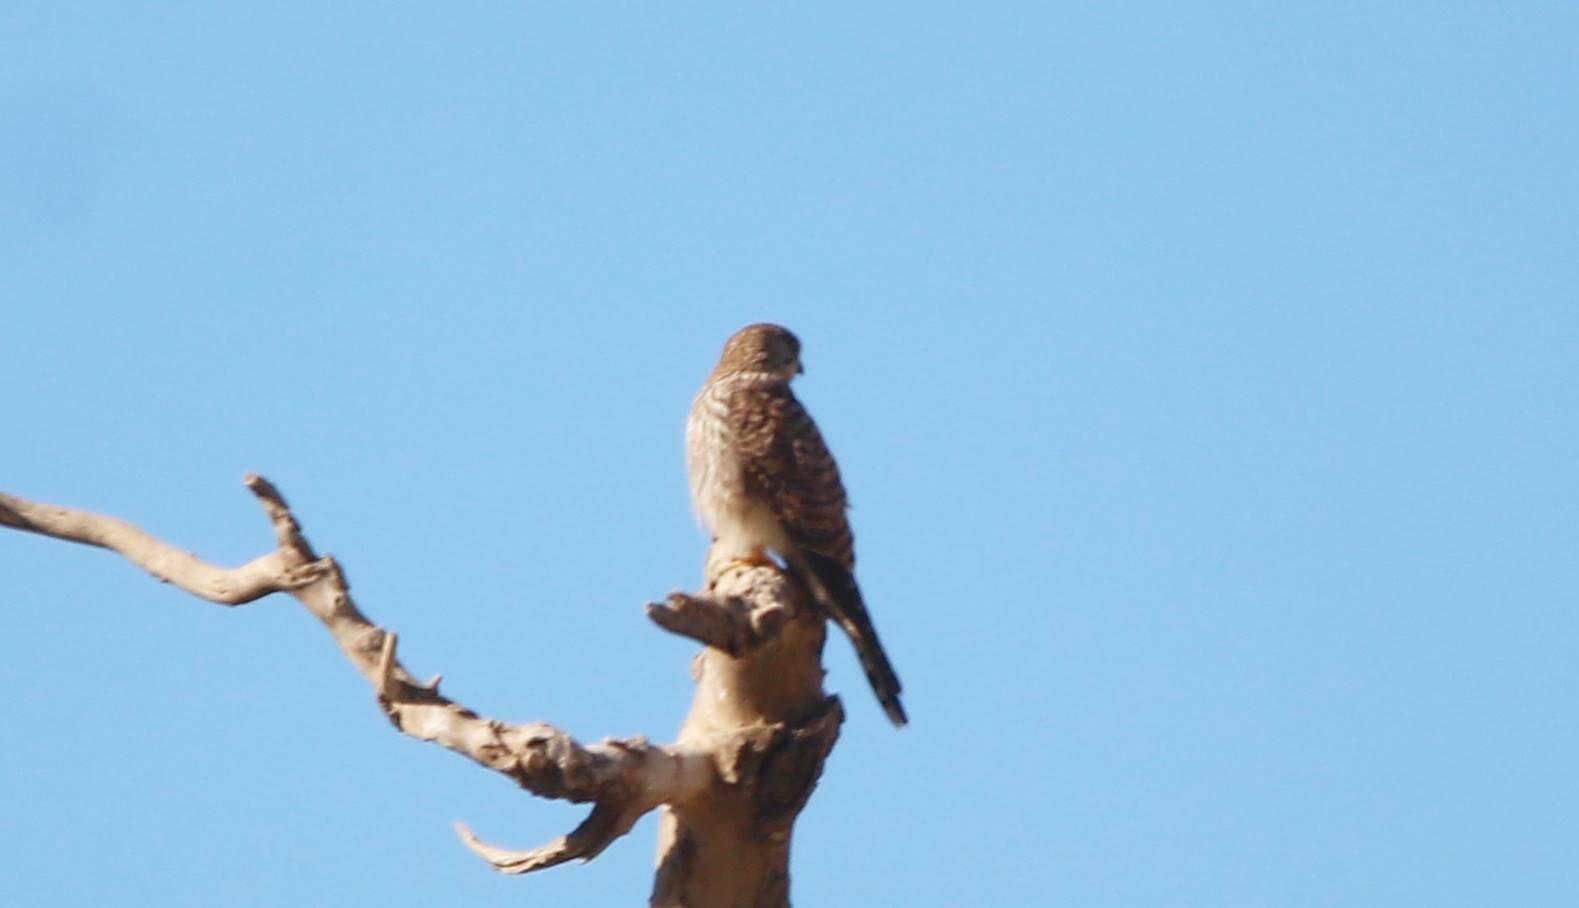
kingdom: Animalia
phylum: Chordata
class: Aves
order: Falconiformes
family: Falconidae
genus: Falco
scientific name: Falco tinnunculus
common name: Common kestrel
